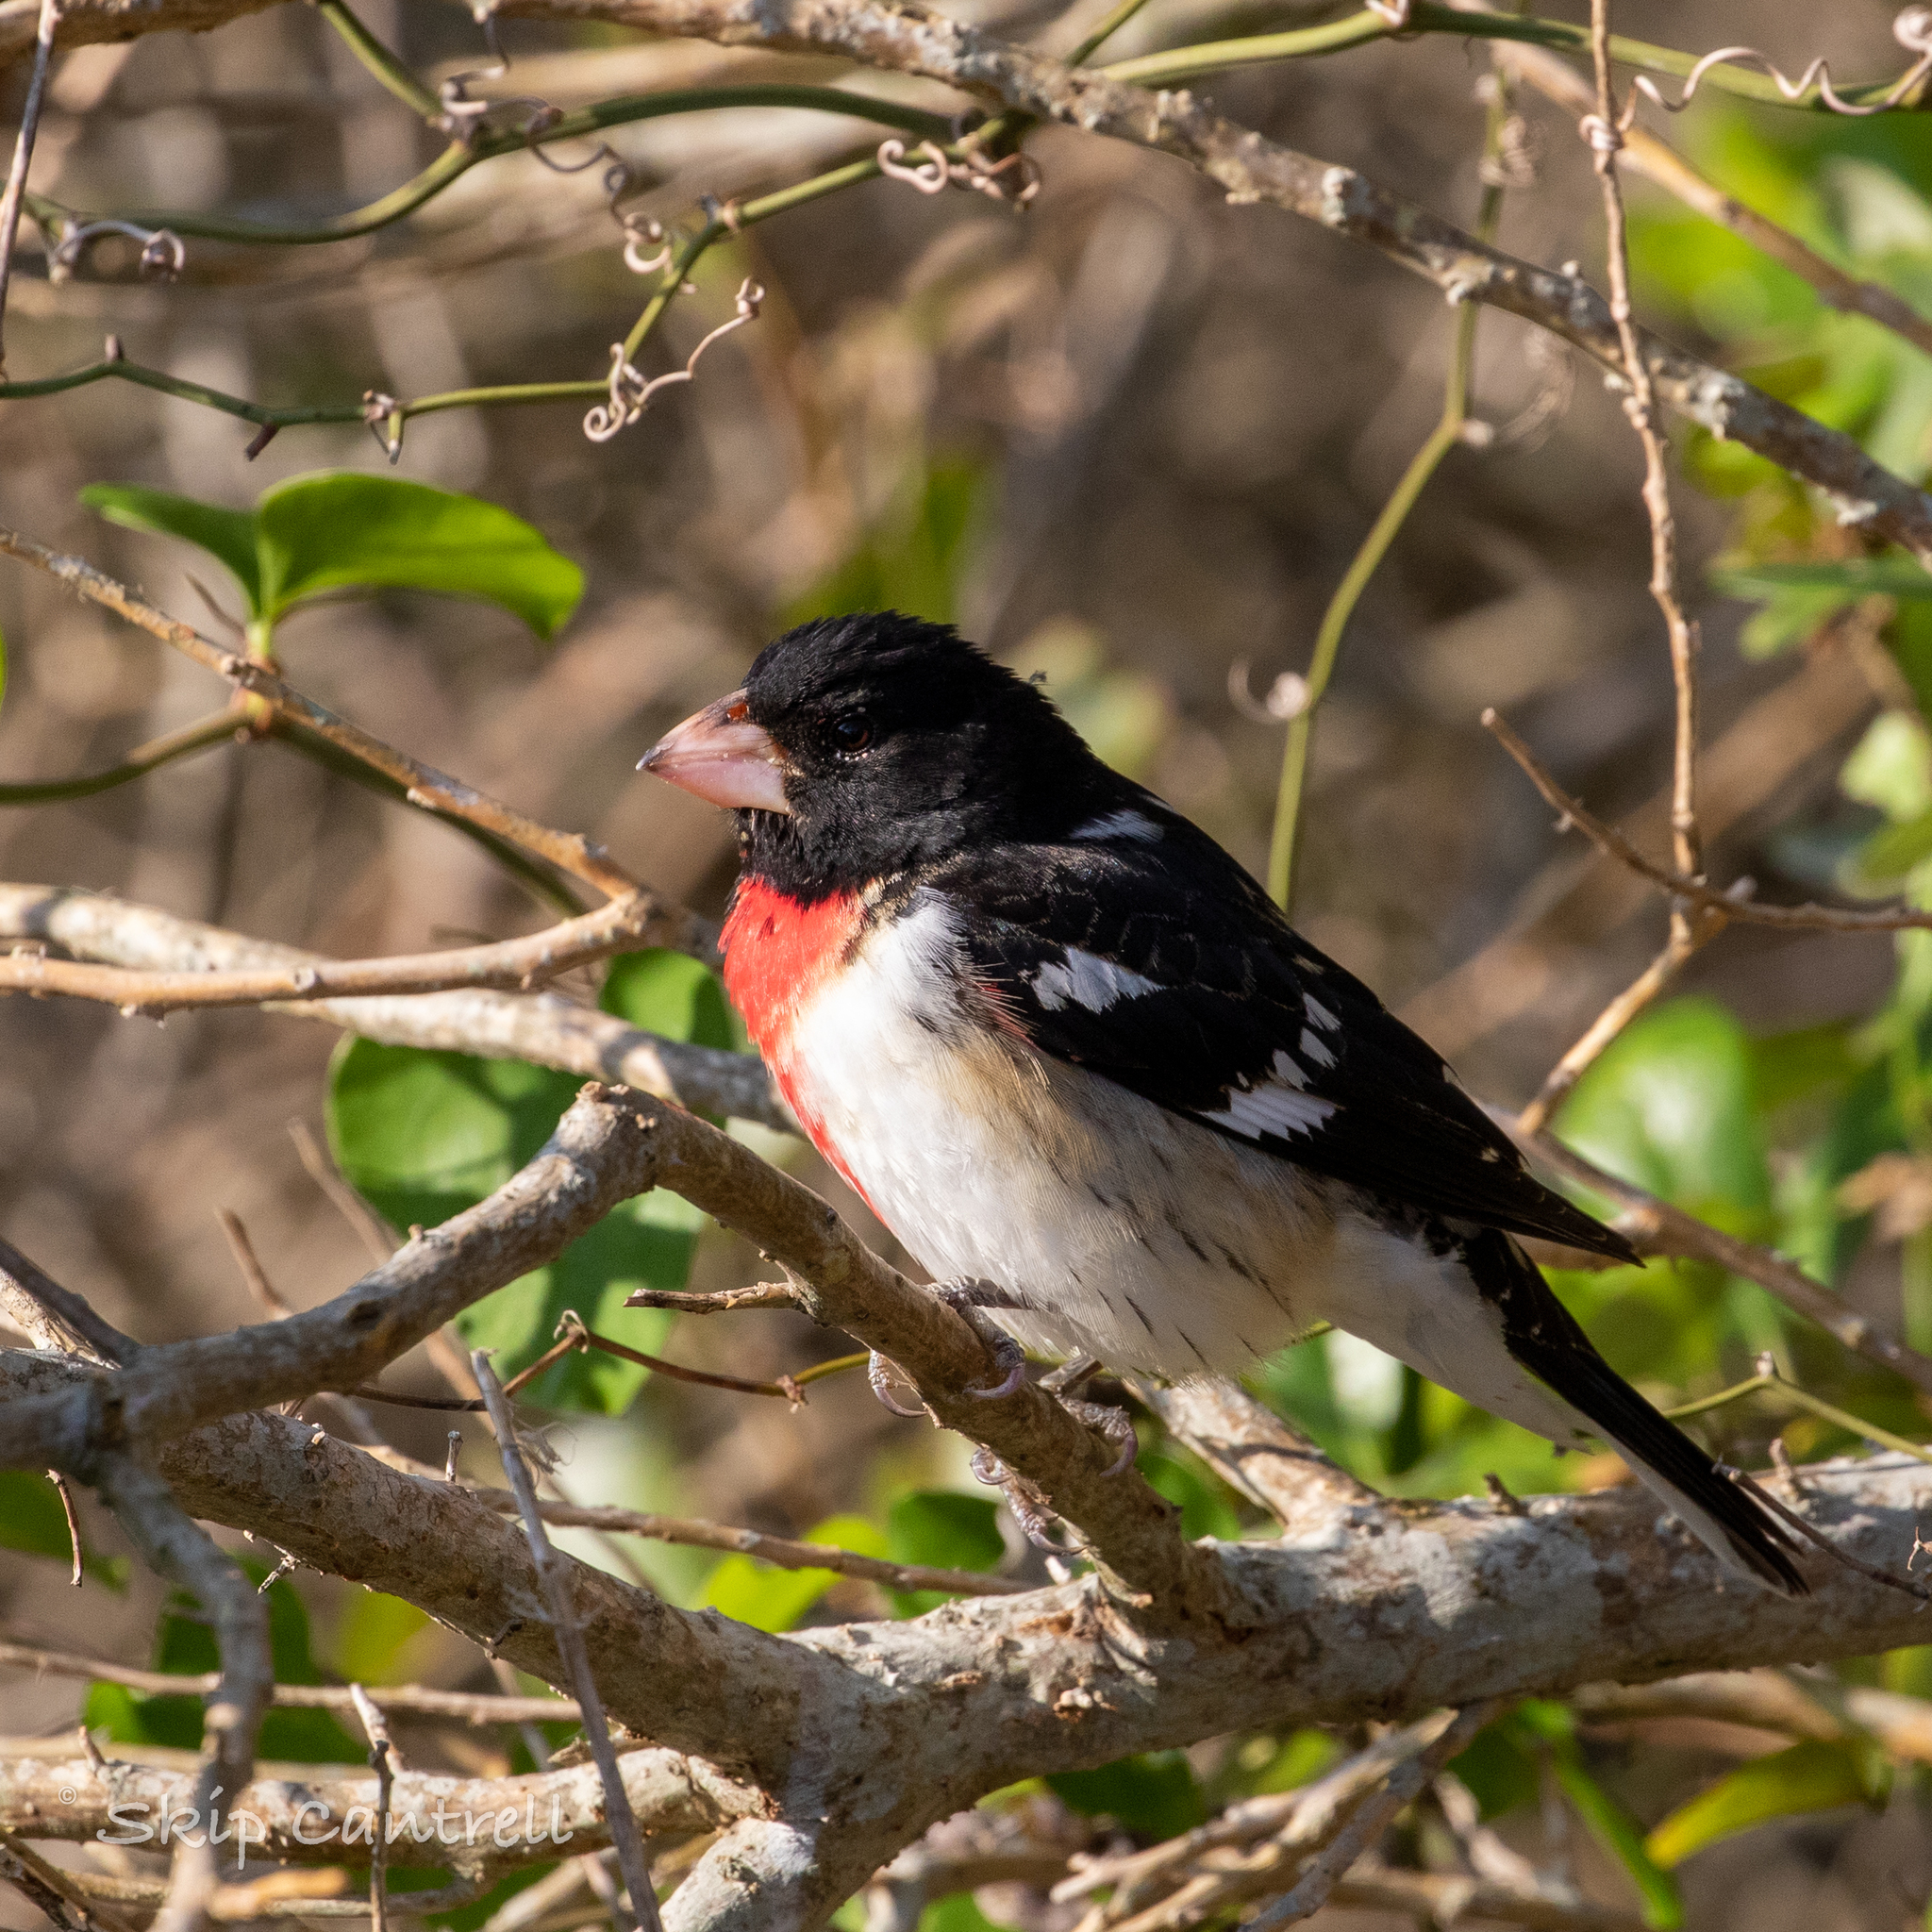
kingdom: Animalia
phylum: Chordata
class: Aves
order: Passeriformes
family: Cardinalidae
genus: Pheucticus
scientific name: Pheucticus ludovicianus
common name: Rose-breasted grosbeak
